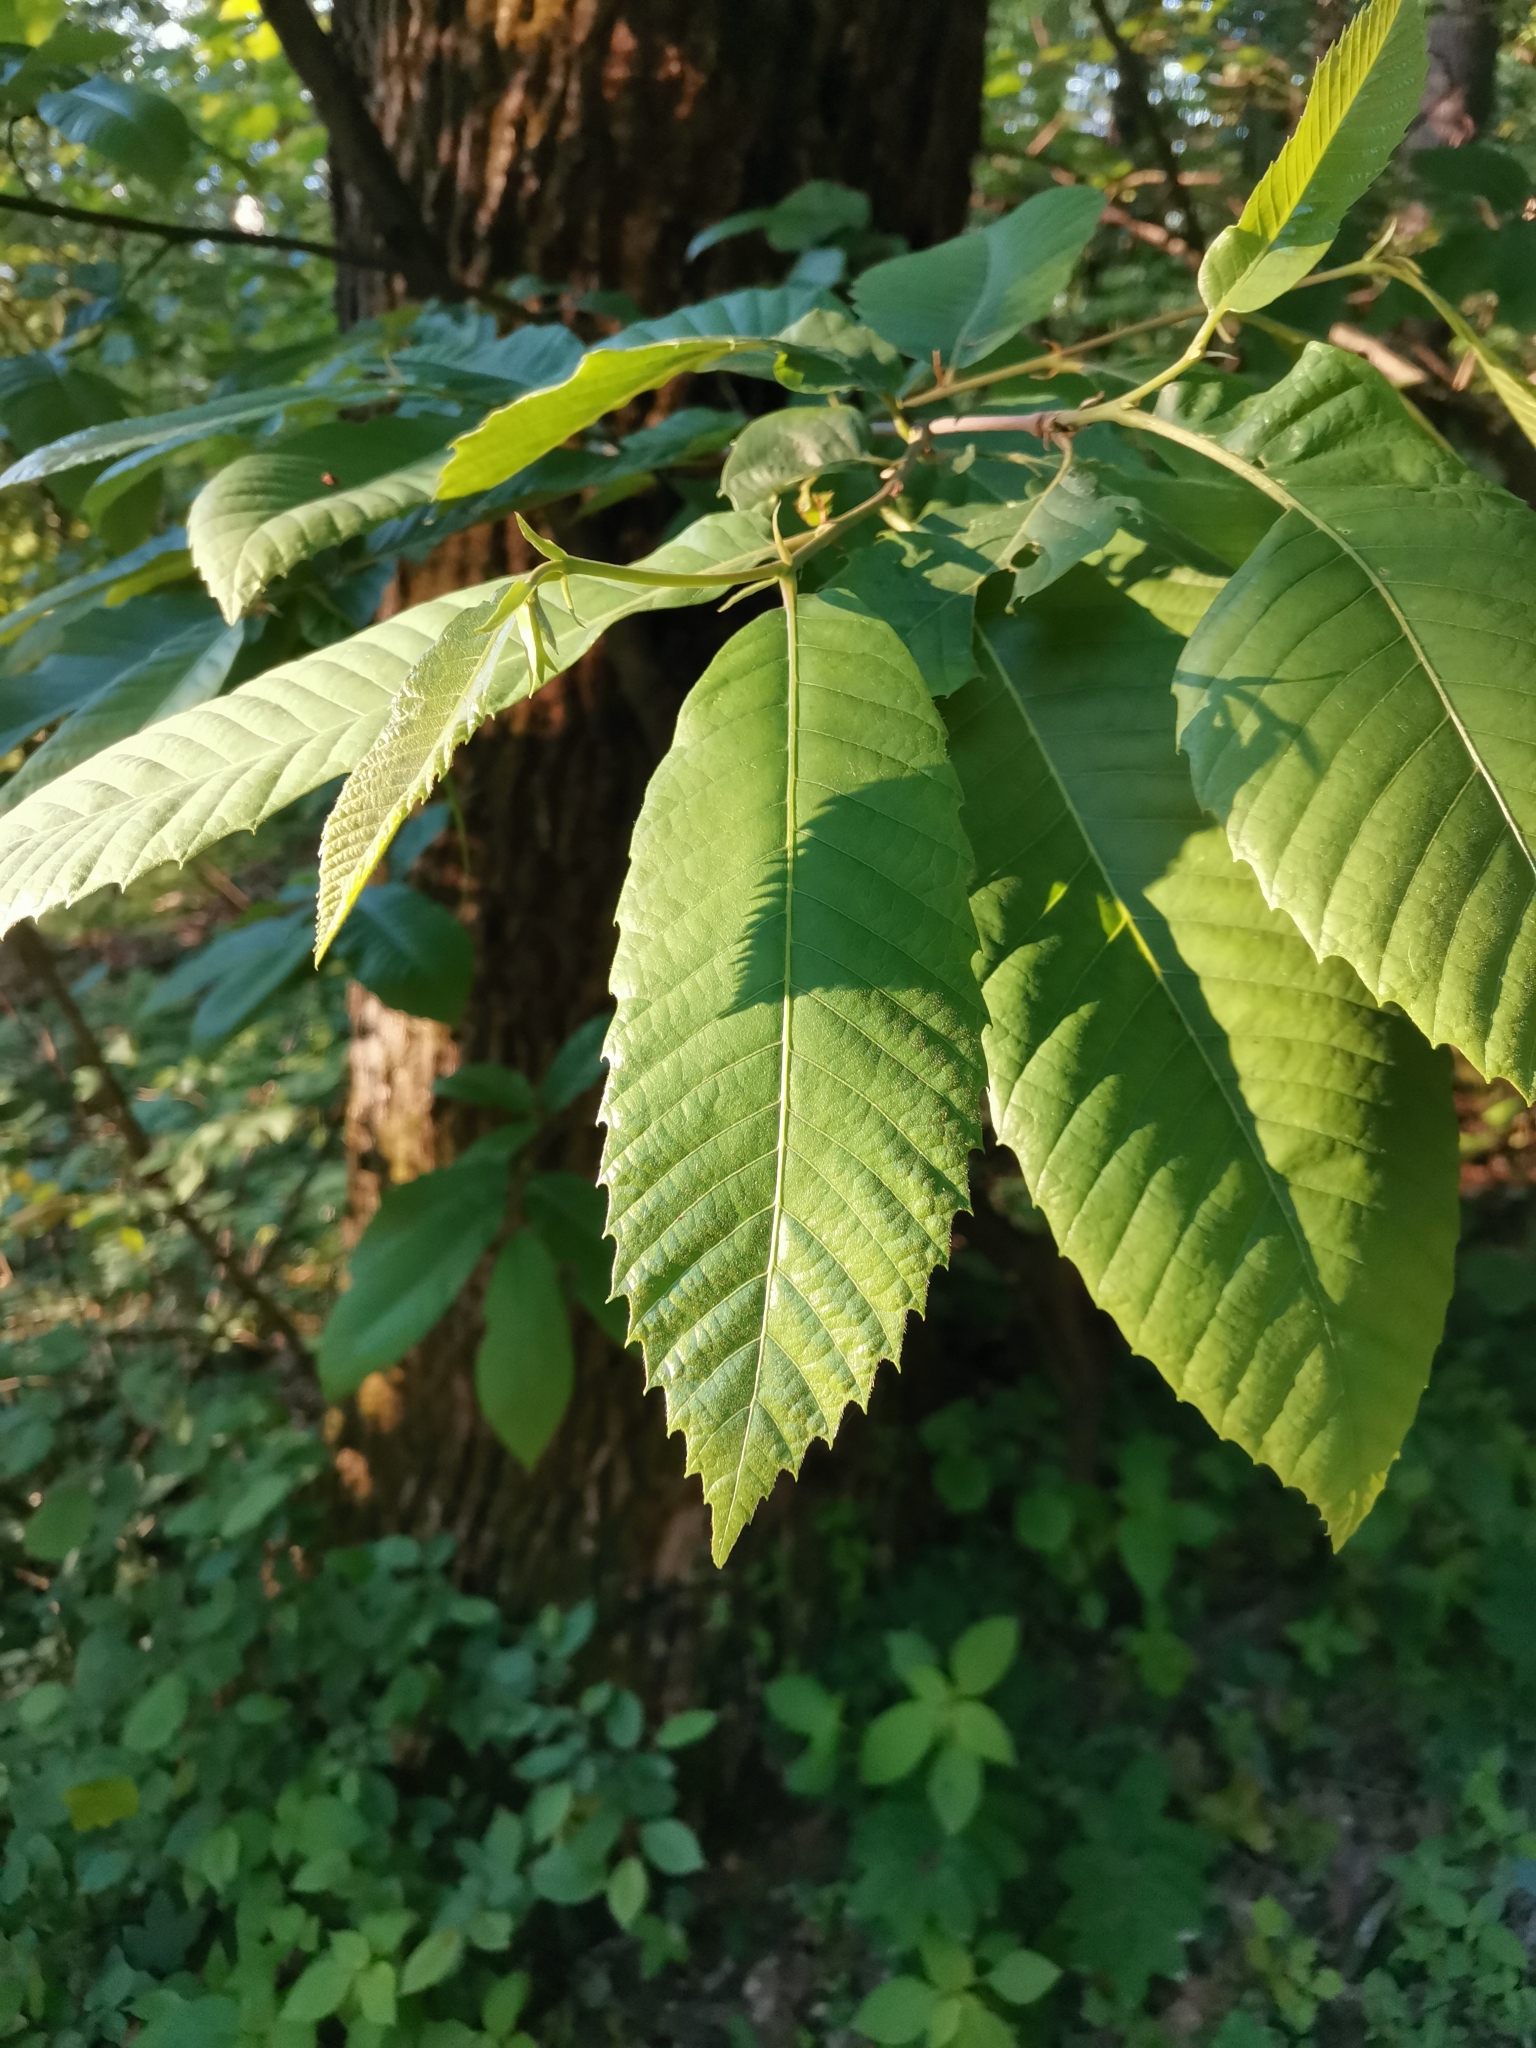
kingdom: Plantae
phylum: Tracheophyta
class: Magnoliopsida
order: Fagales
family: Fagaceae
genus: Castanea
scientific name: Castanea sativa
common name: Sweet chestnut
